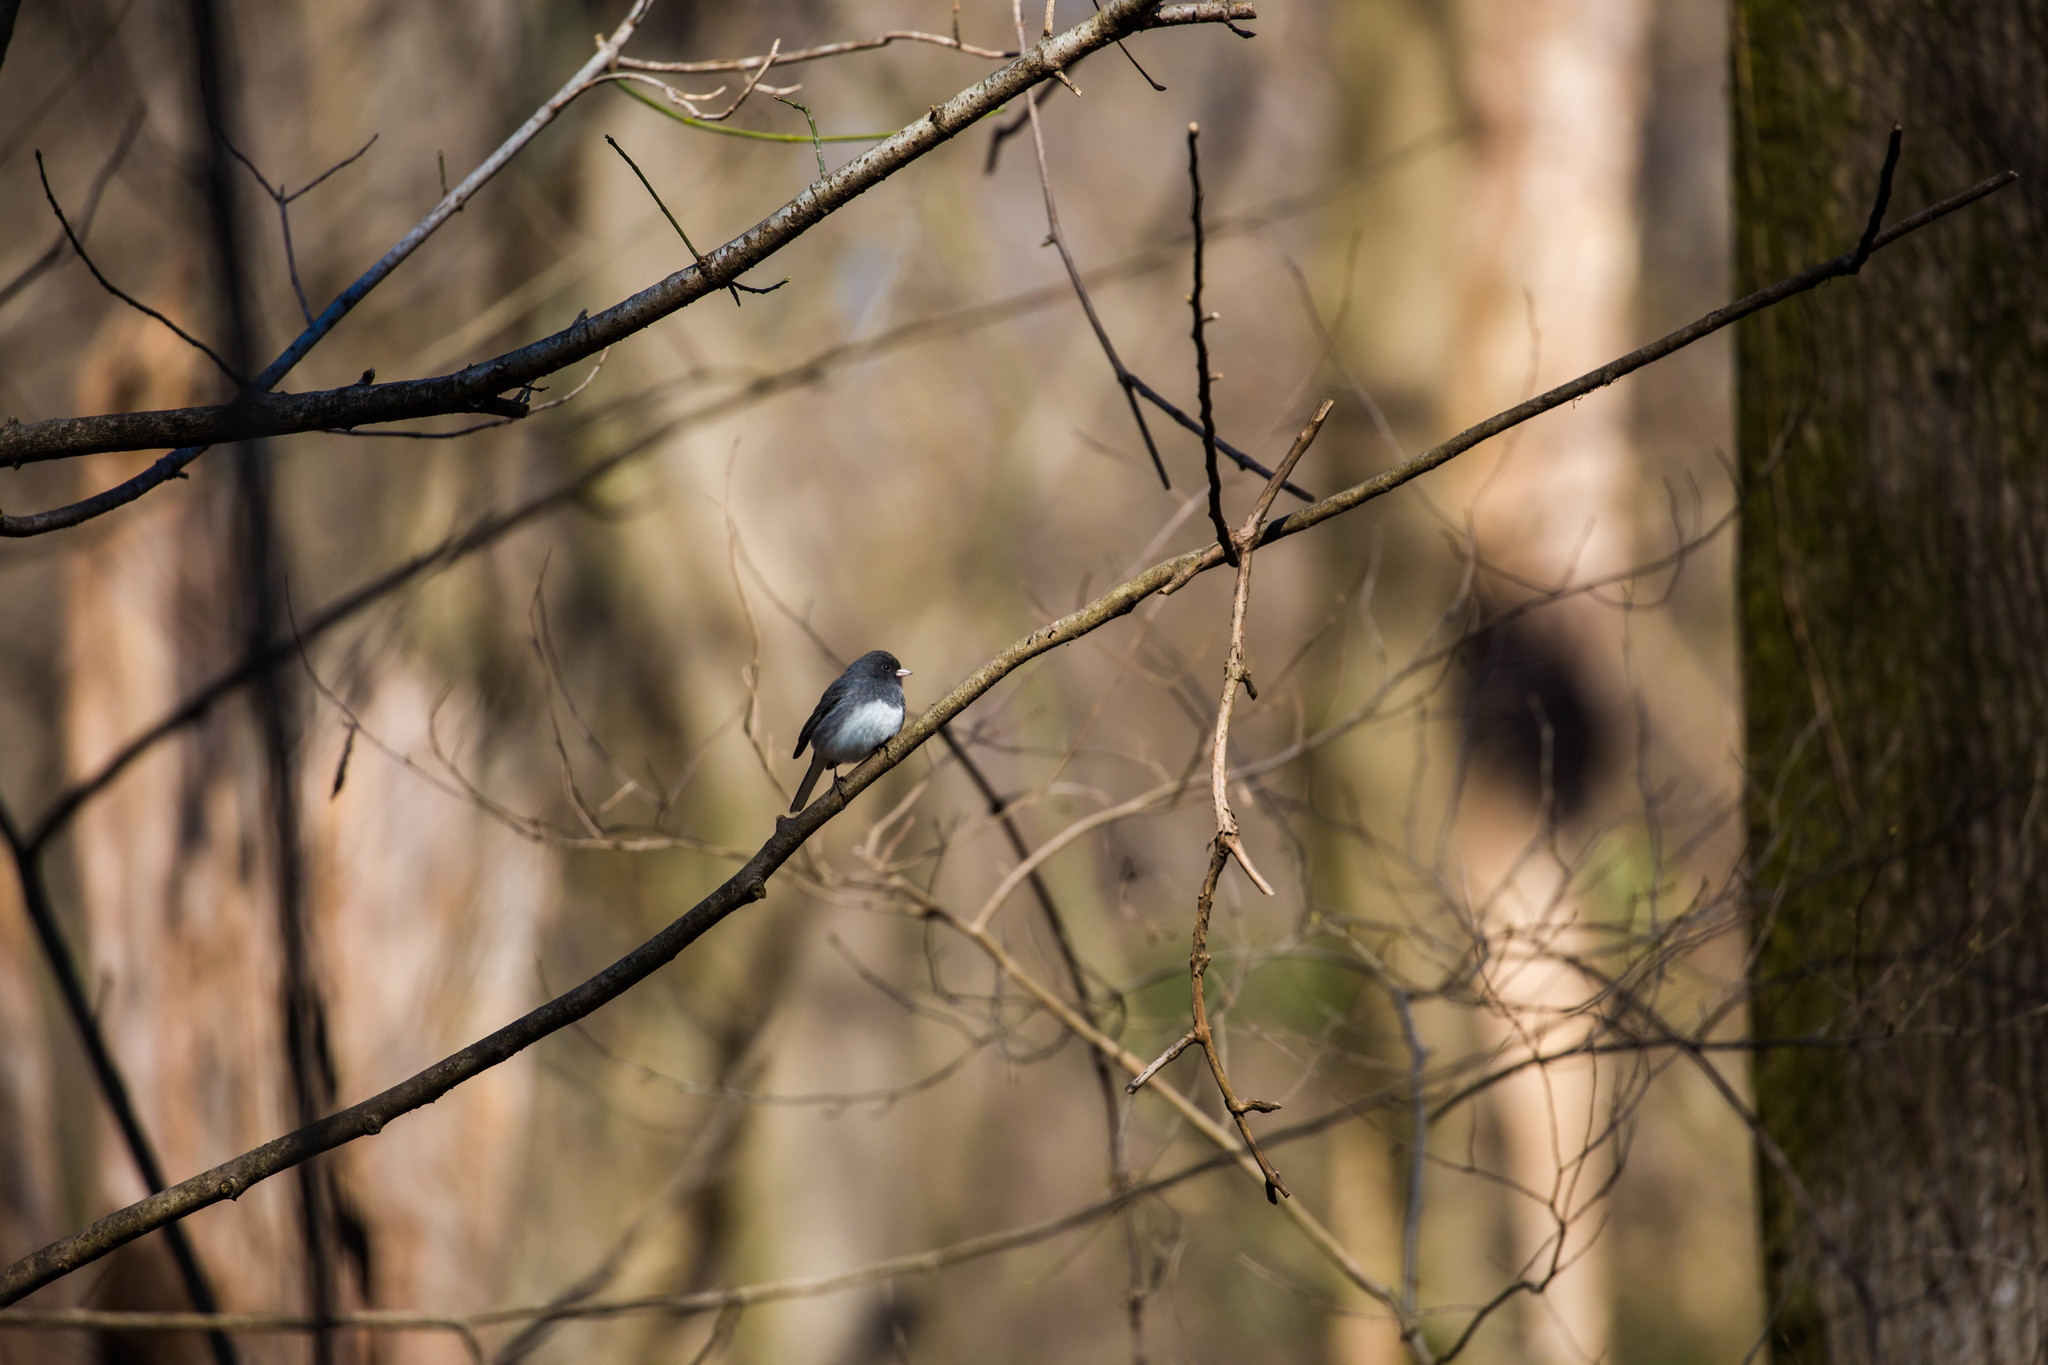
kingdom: Animalia
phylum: Chordata
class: Aves
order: Passeriformes
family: Passerellidae
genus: Junco
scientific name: Junco hyemalis
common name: Dark-eyed junco
